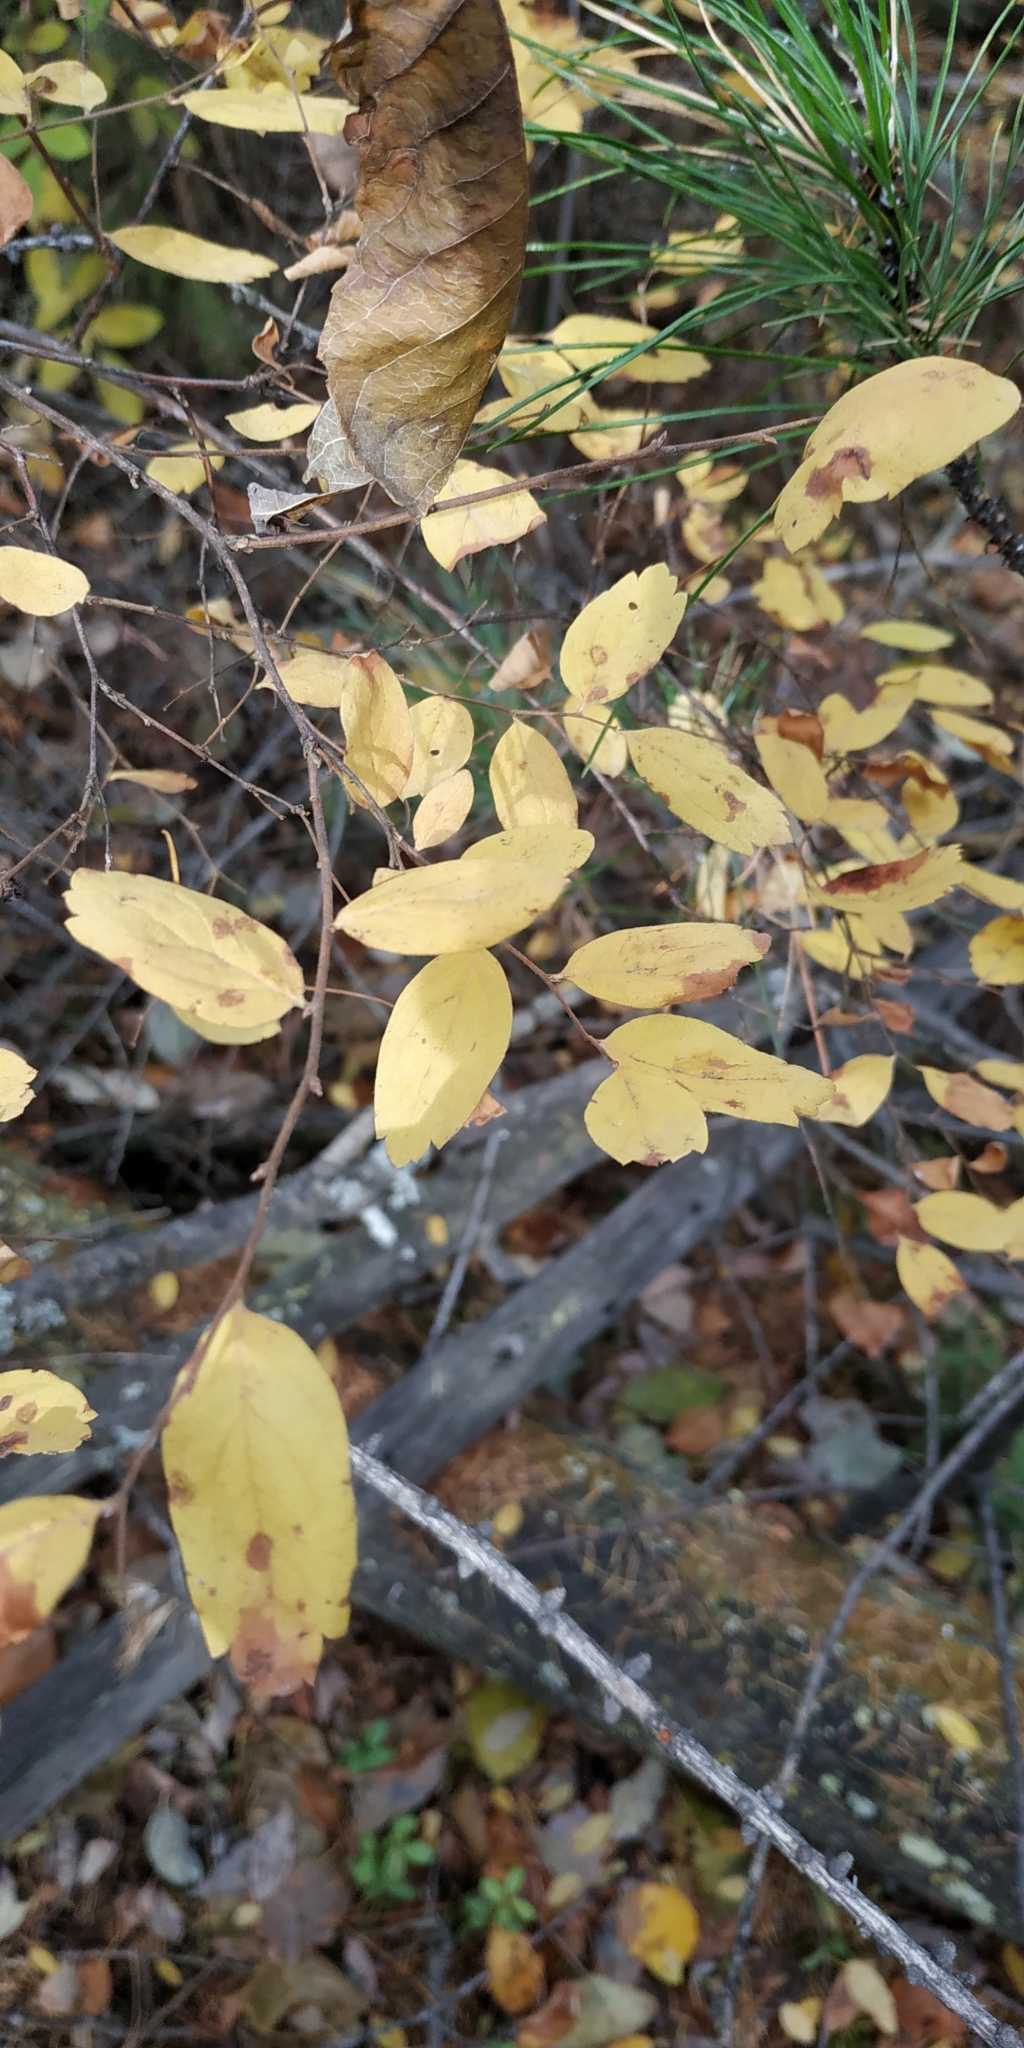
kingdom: Plantae
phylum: Tracheophyta
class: Magnoliopsida
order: Rosales
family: Rosaceae
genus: Spiraea
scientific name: Spiraea media
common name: Russian spiraea
